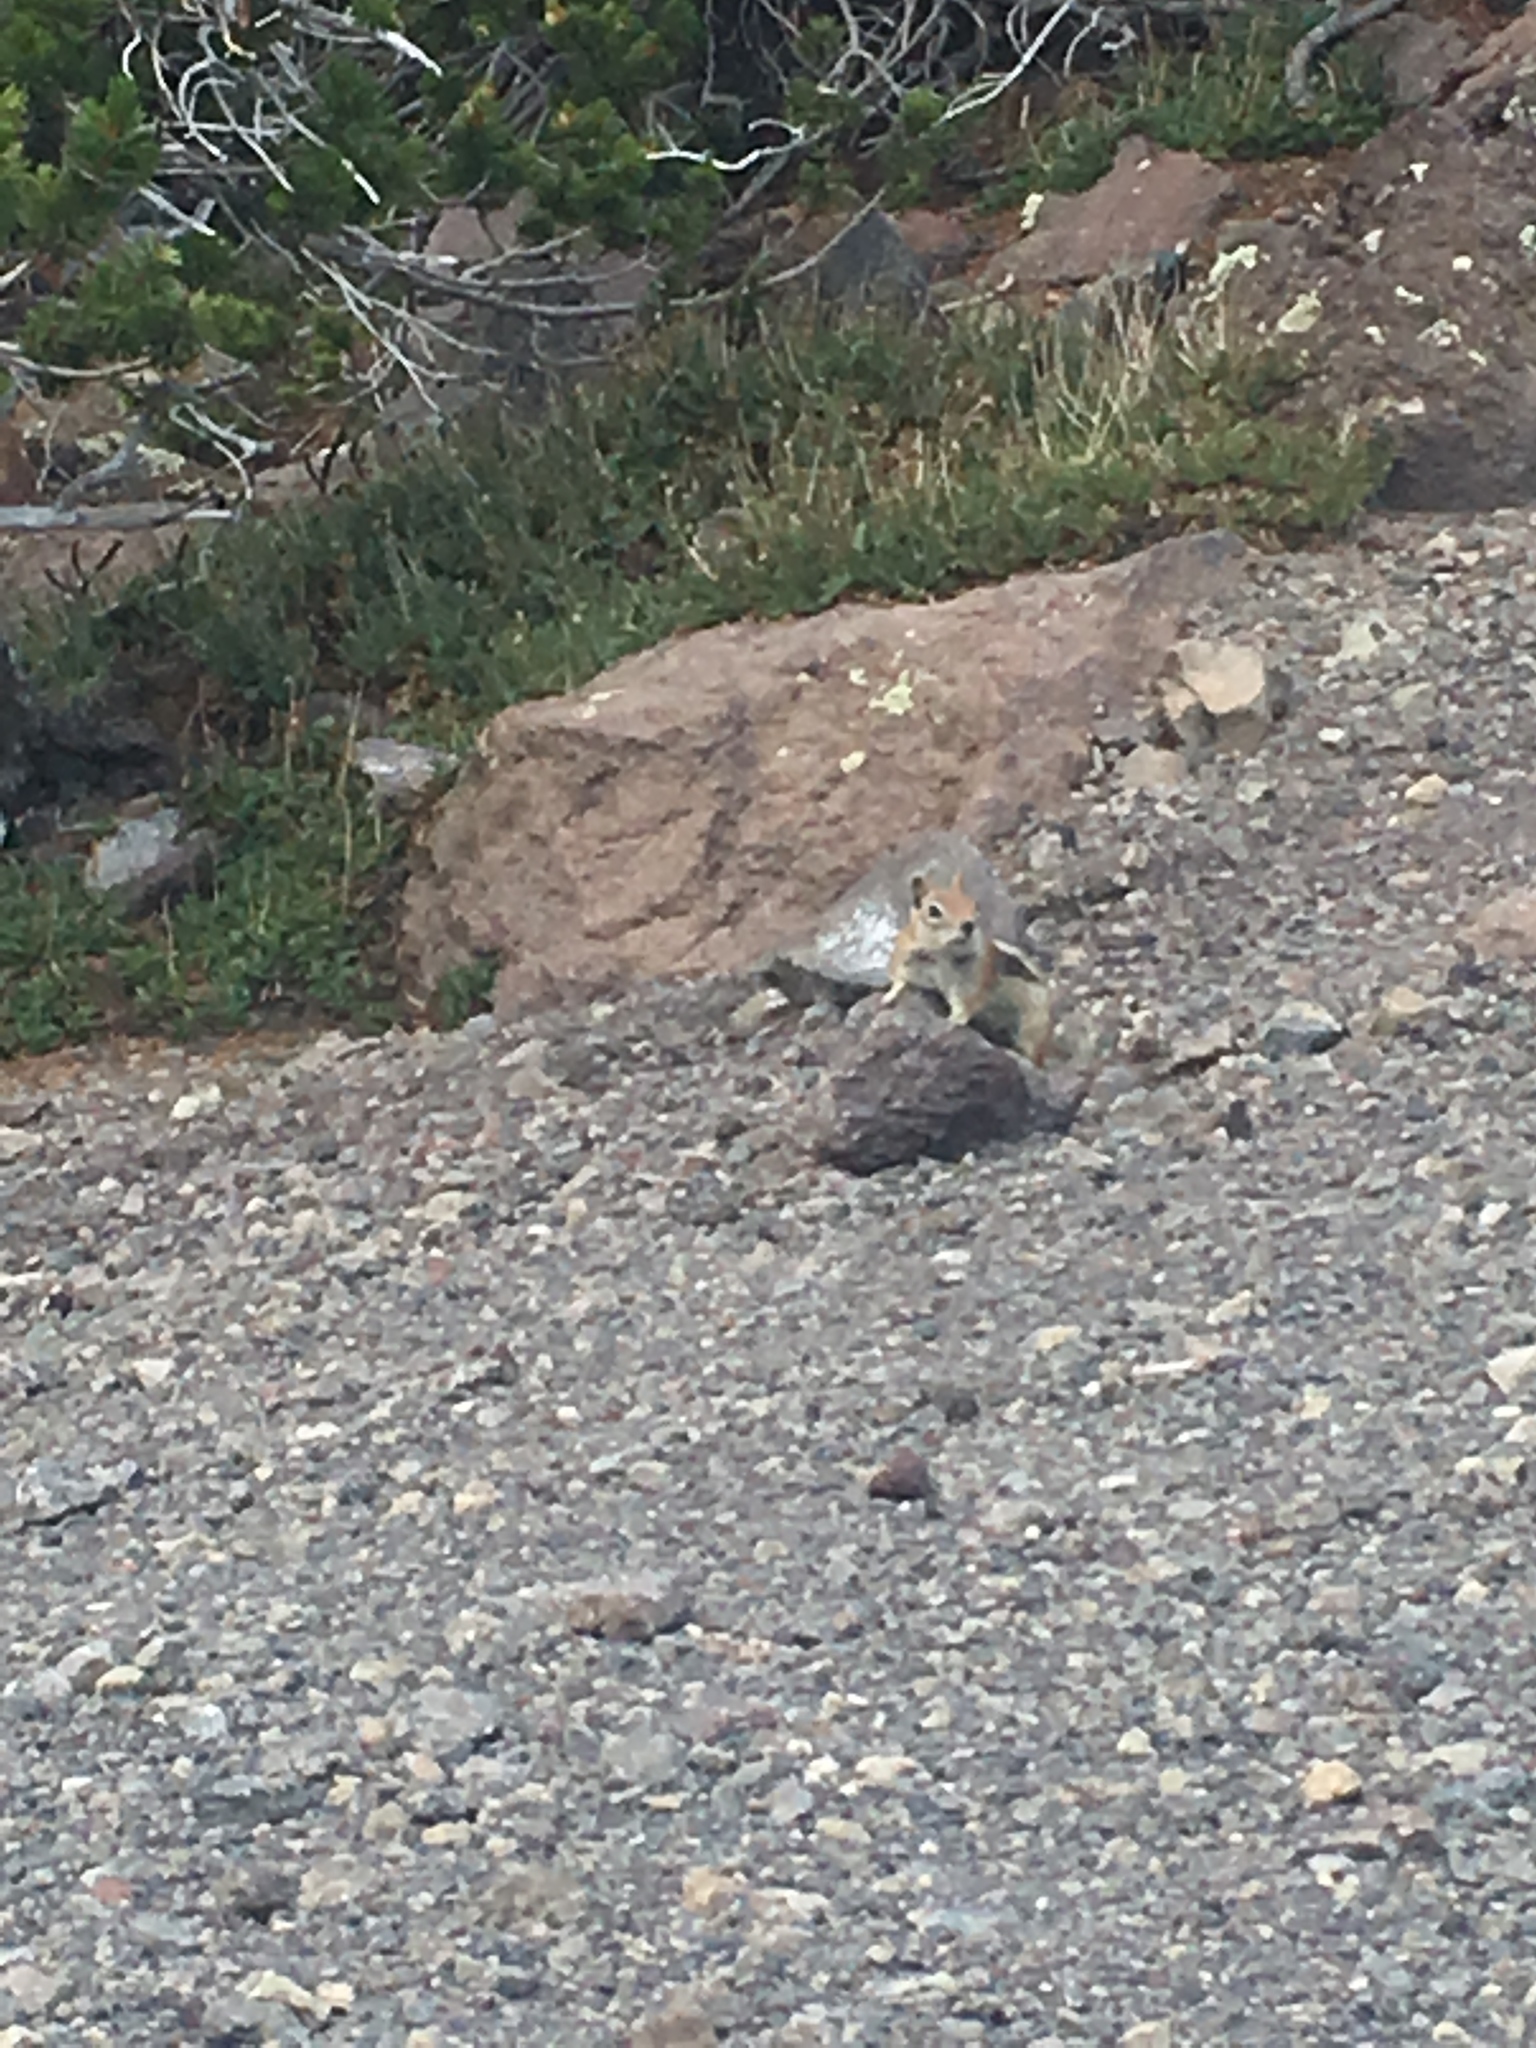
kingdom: Animalia
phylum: Chordata
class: Mammalia
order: Rodentia
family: Sciuridae
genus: Callospermophilus
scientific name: Callospermophilus lateralis
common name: Golden-mantled ground squirrel
